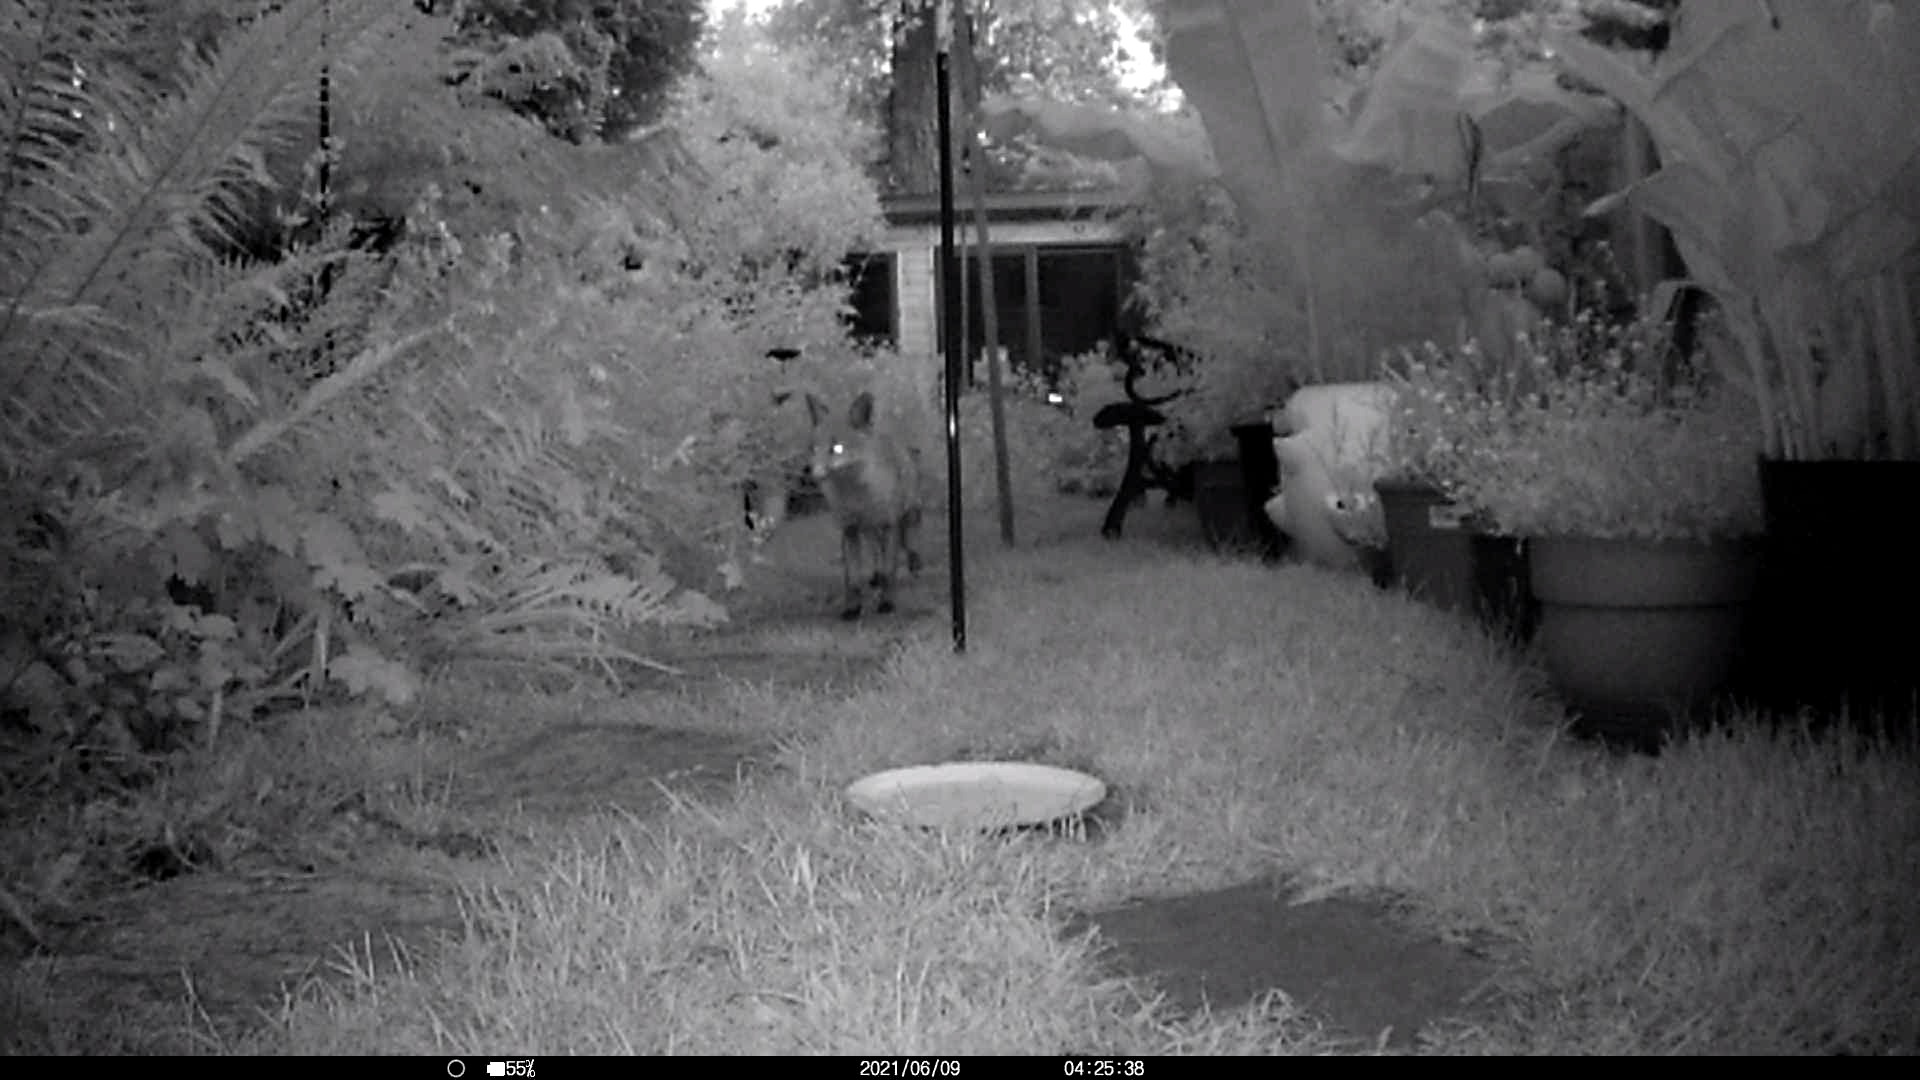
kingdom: Animalia
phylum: Chordata
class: Mammalia
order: Carnivora
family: Canidae
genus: Vulpes
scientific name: Vulpes vulpes
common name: Red fox
